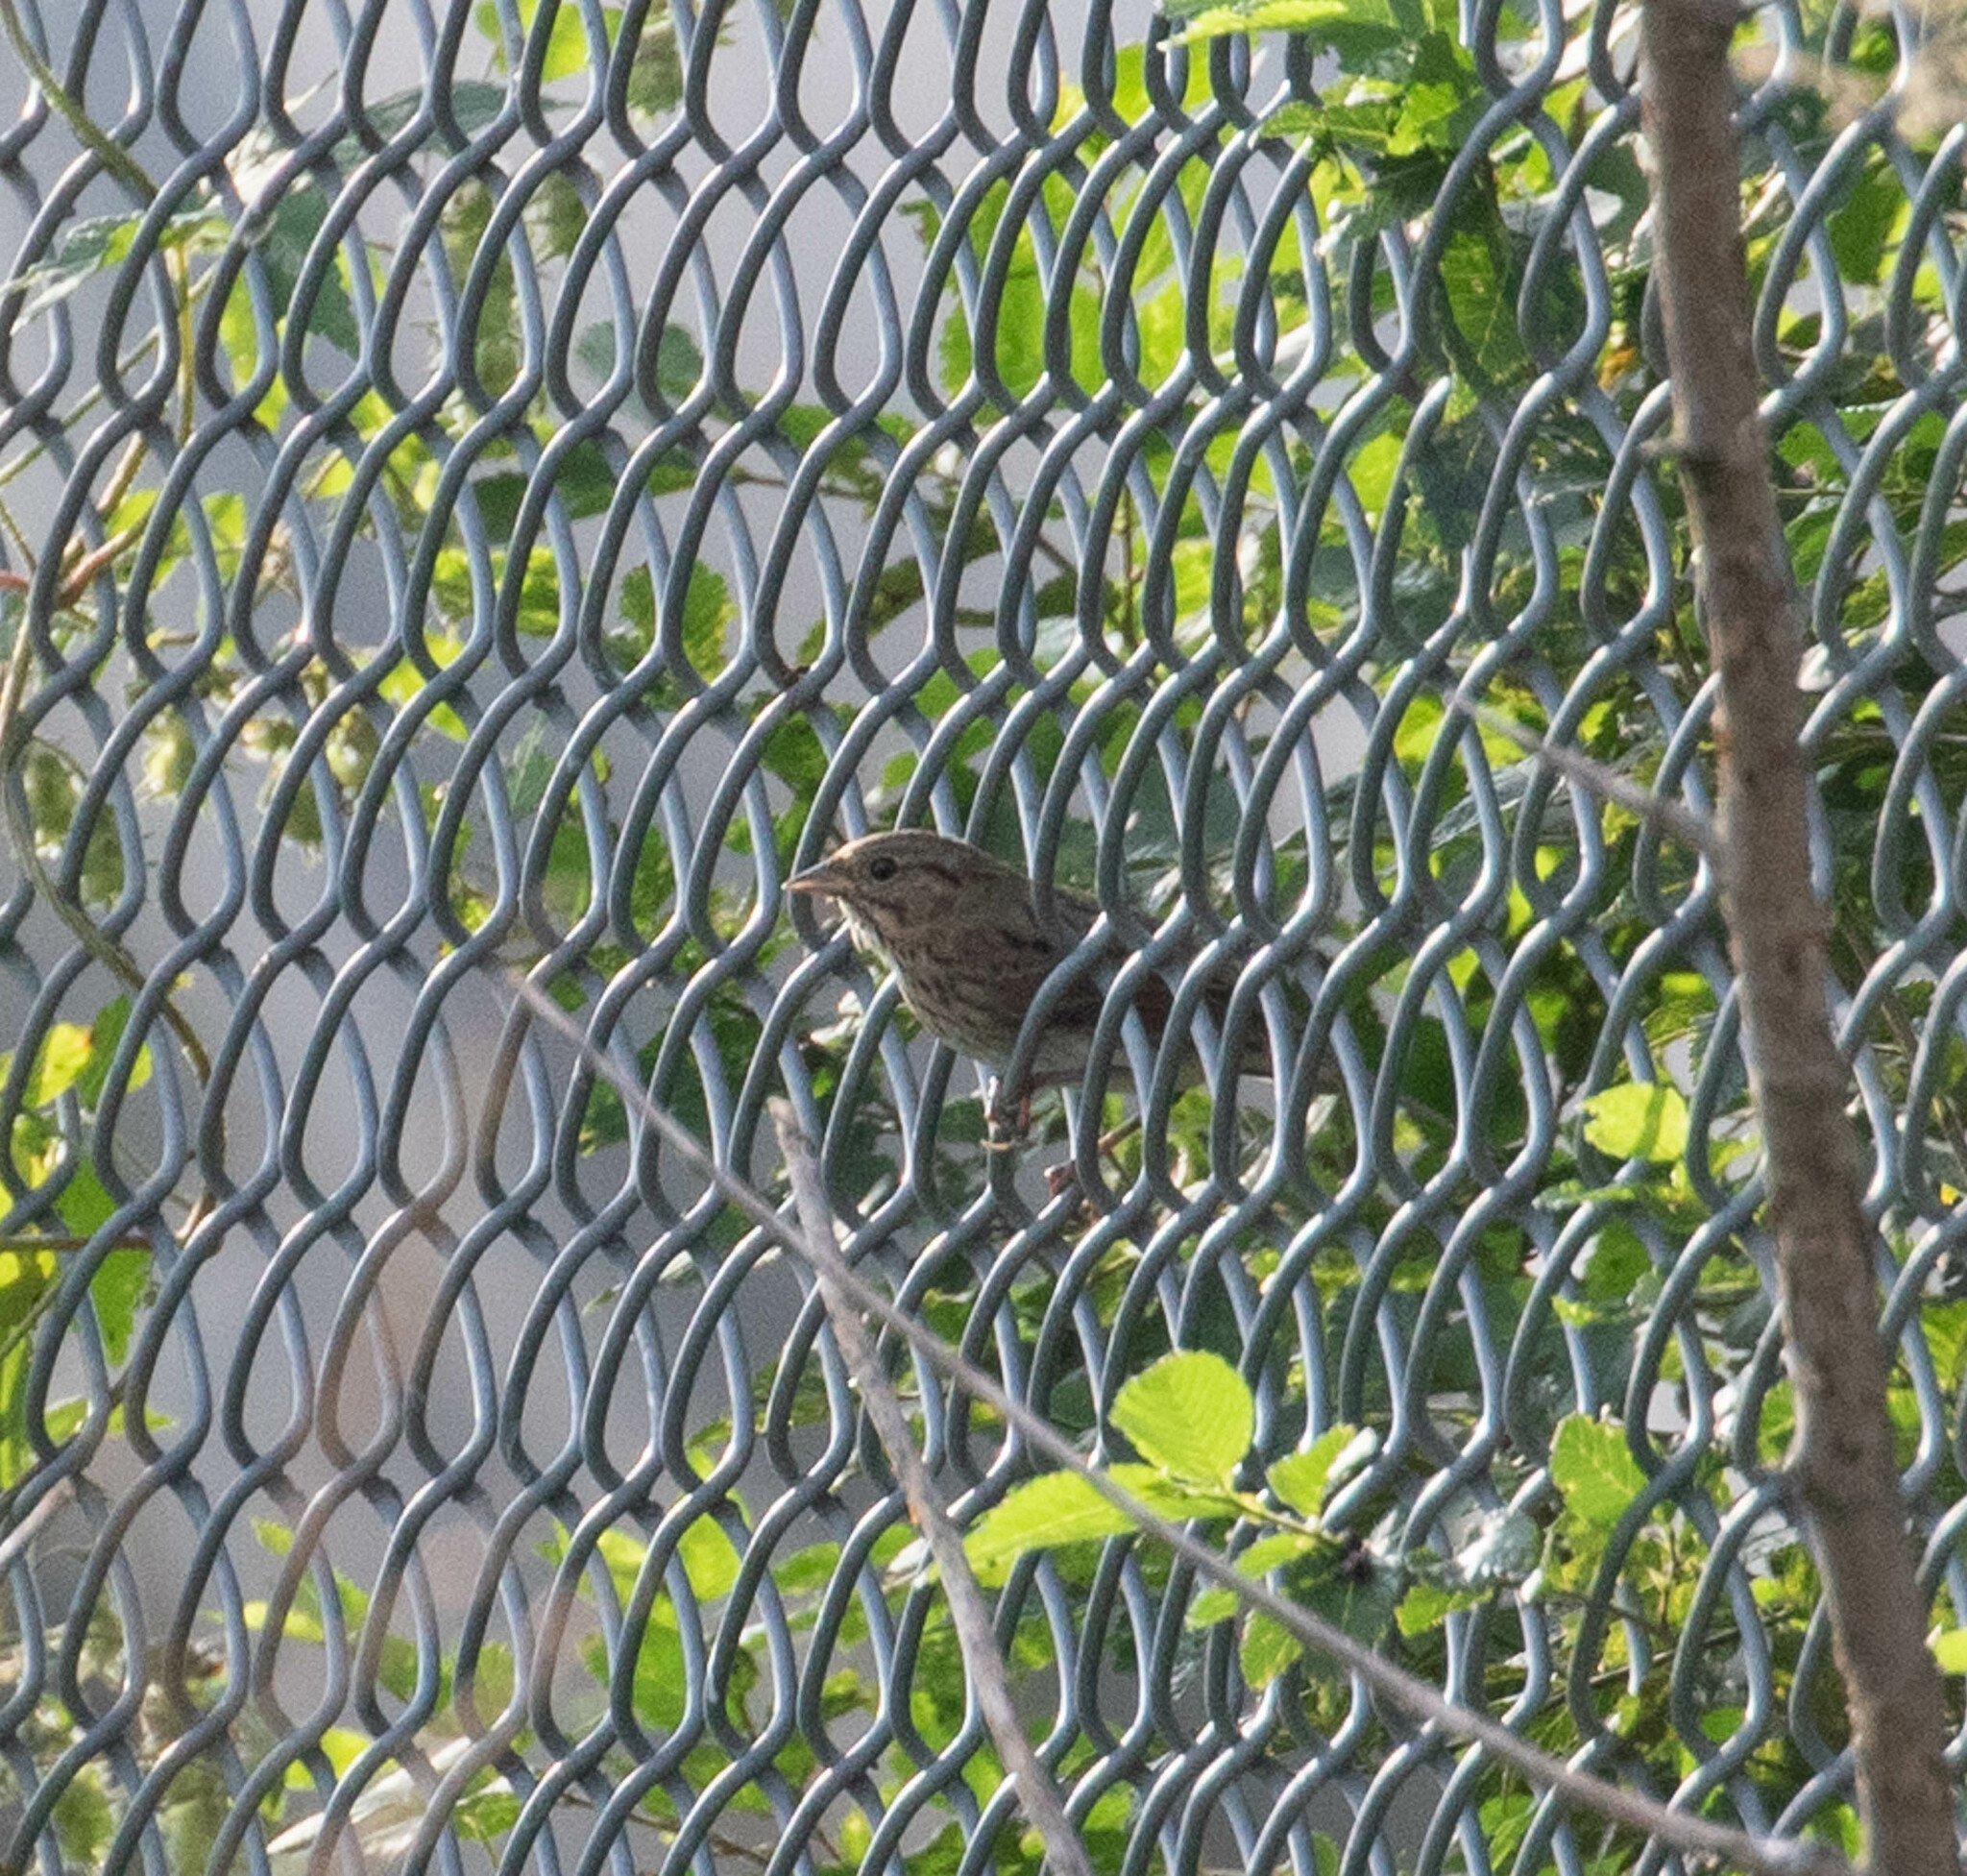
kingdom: Animalia
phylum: Chordata
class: Aves
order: Passeriformes
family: Passerellidae
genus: Melospiza
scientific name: Melospiza lincolnii
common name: Lincoln's sparrow
